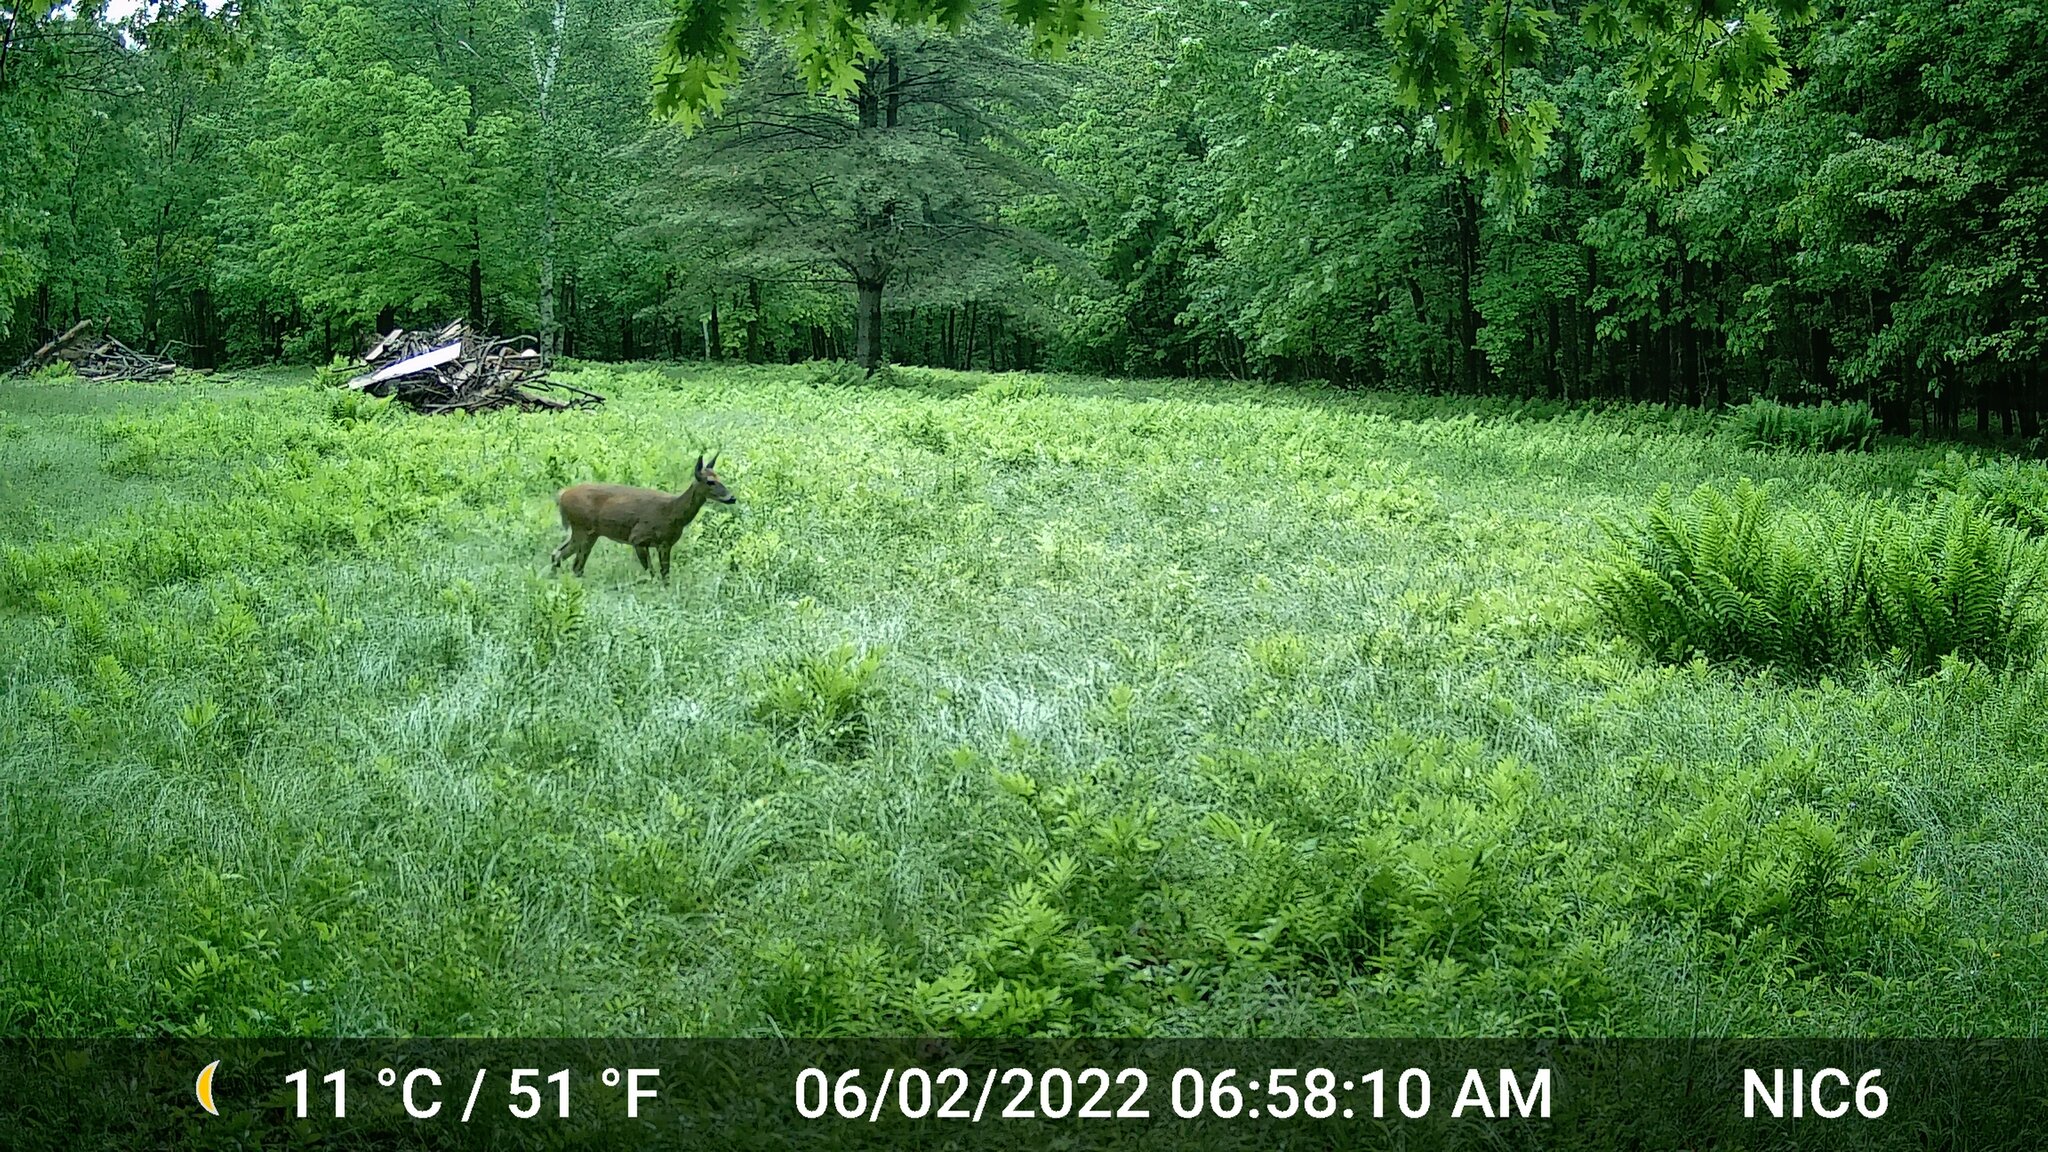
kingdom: Animalia
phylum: Chordata
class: Mammalia
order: Artiodactyla
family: Cervidae
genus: Odocoileus
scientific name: Odocoileus virginianus
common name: White-tailed deer
